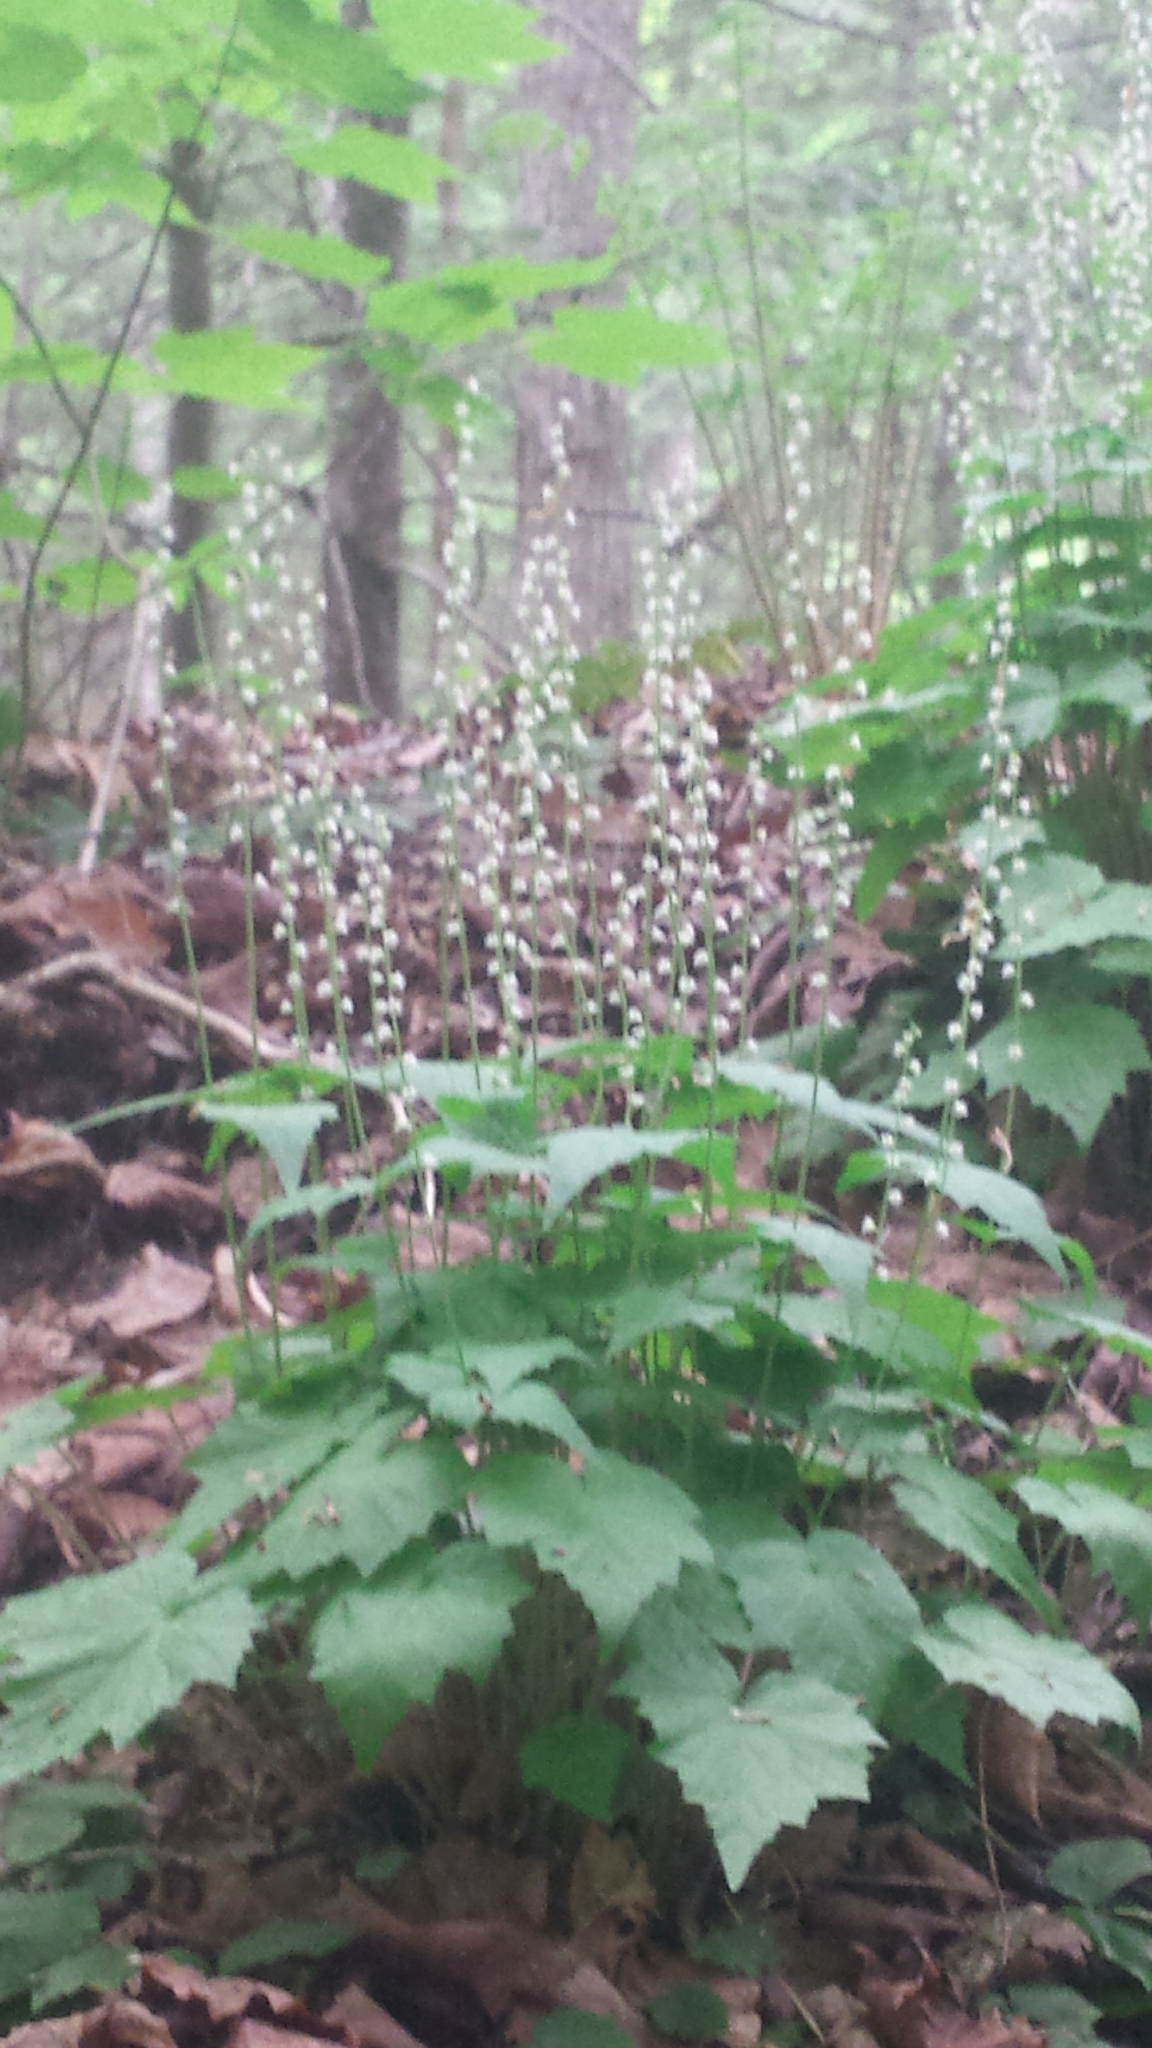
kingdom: Plantae
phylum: Tracheophyta
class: Magnoliopsida
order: Saxifragales
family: Saxifragaceae
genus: Mitella
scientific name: Mitella diphylla
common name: Coolwort
